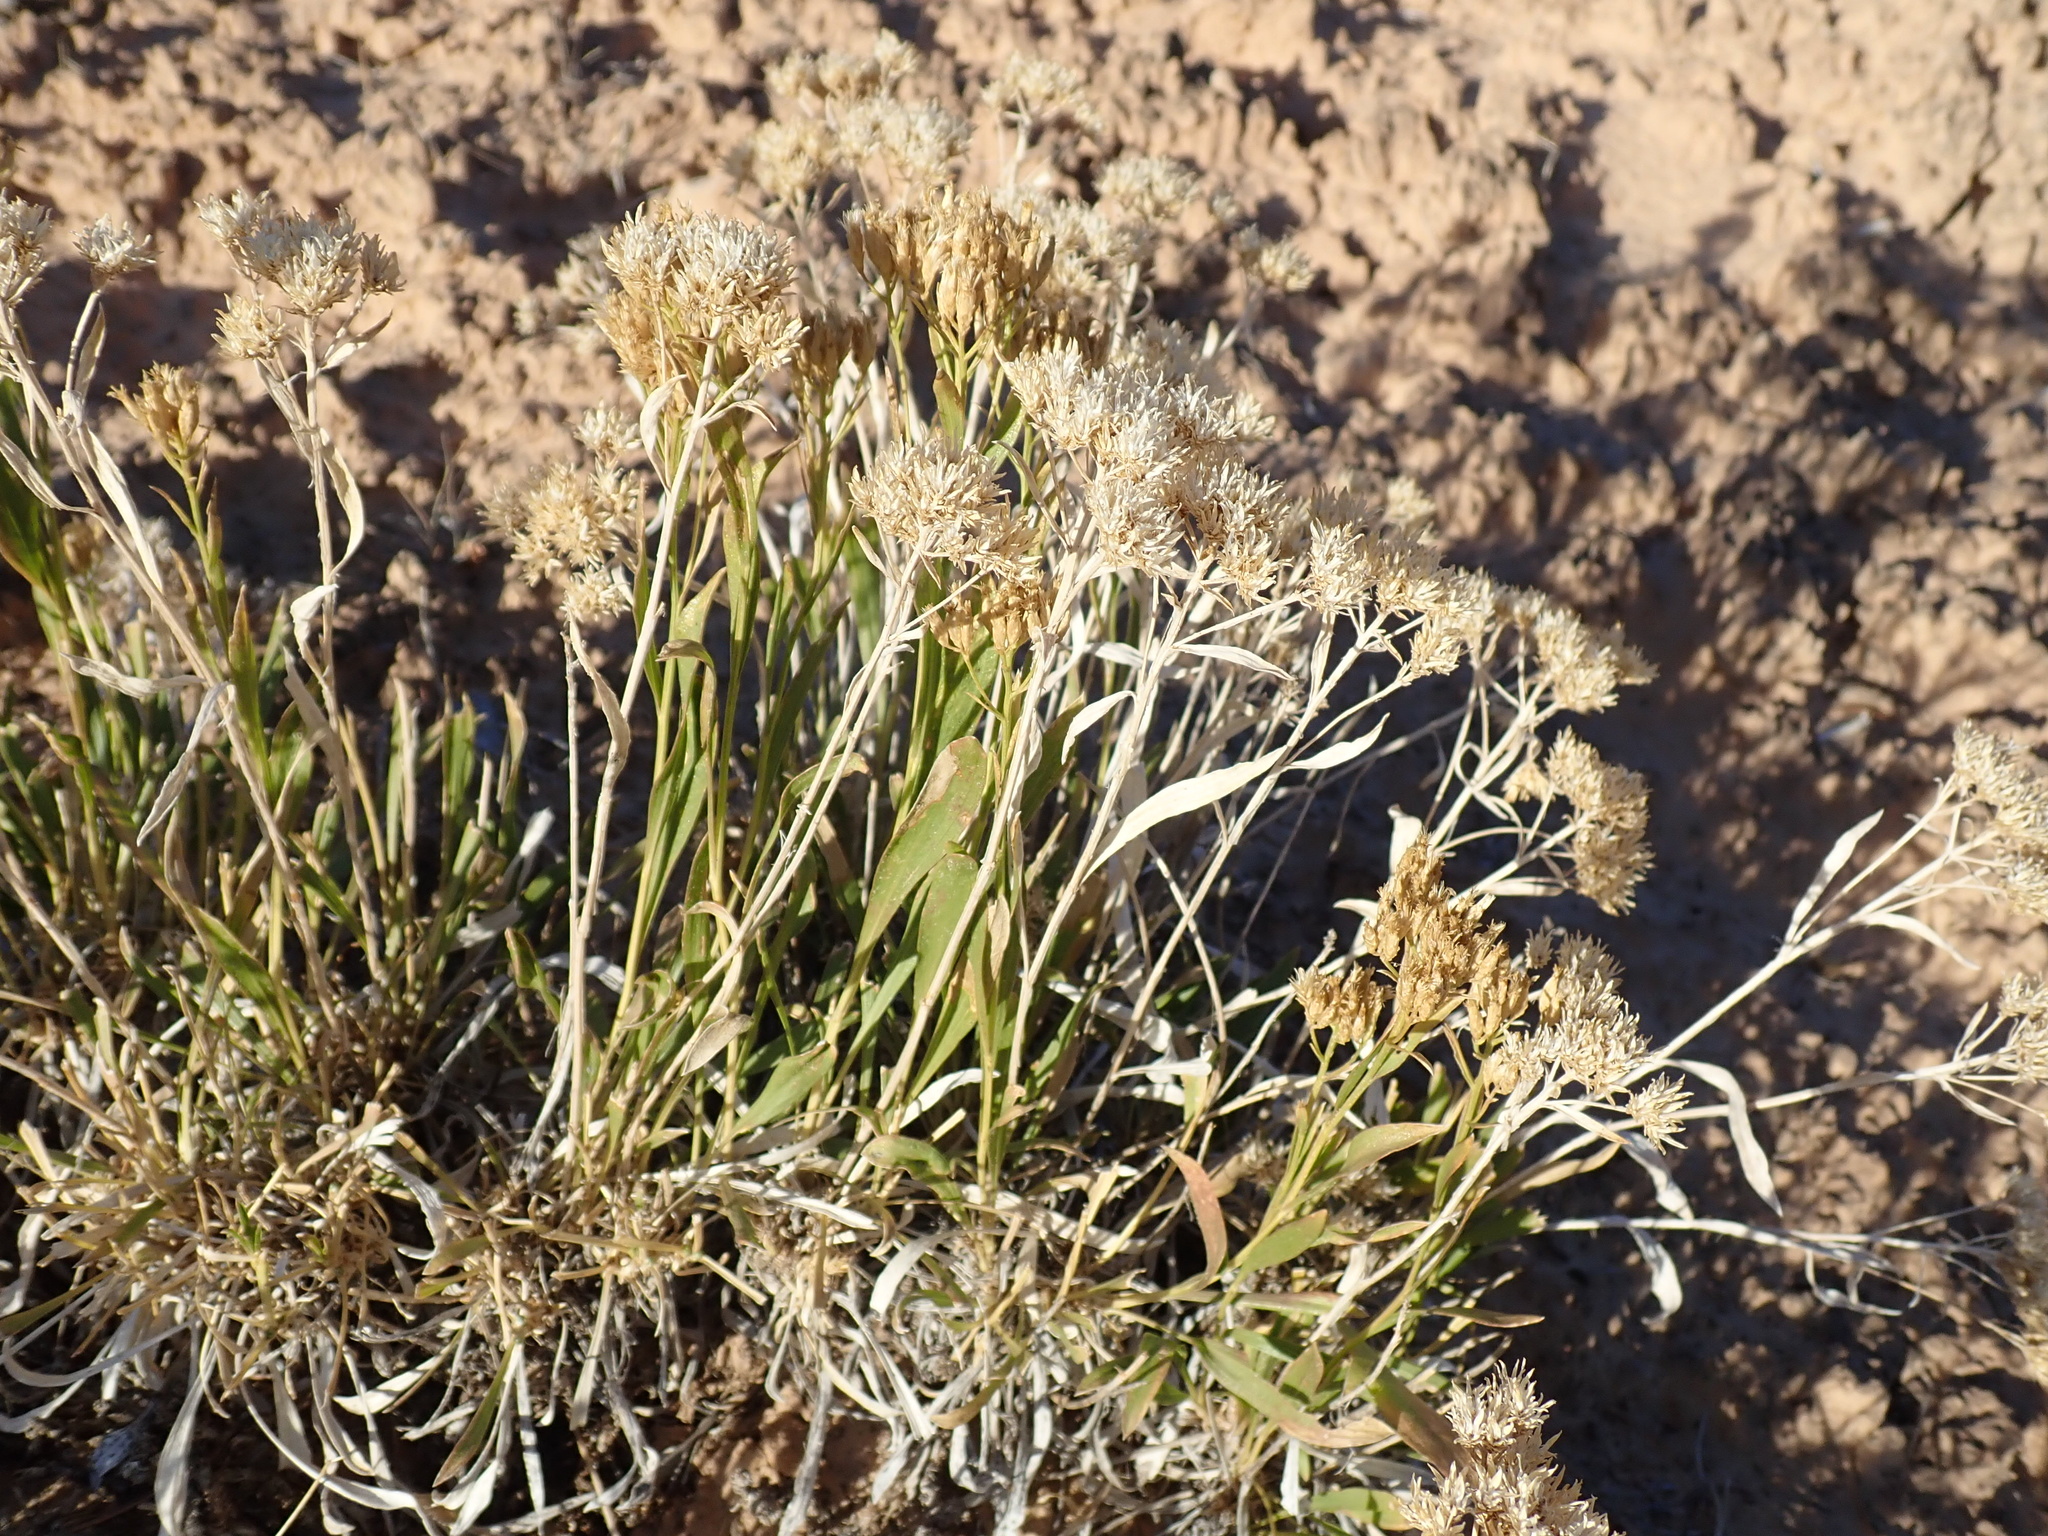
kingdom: Plantae
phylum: Tracheophyta
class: Magnoliopsida
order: Asterales
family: Asteraceae
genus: Petradoria
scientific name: Petradoria pumila
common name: Rock-goldenrod
